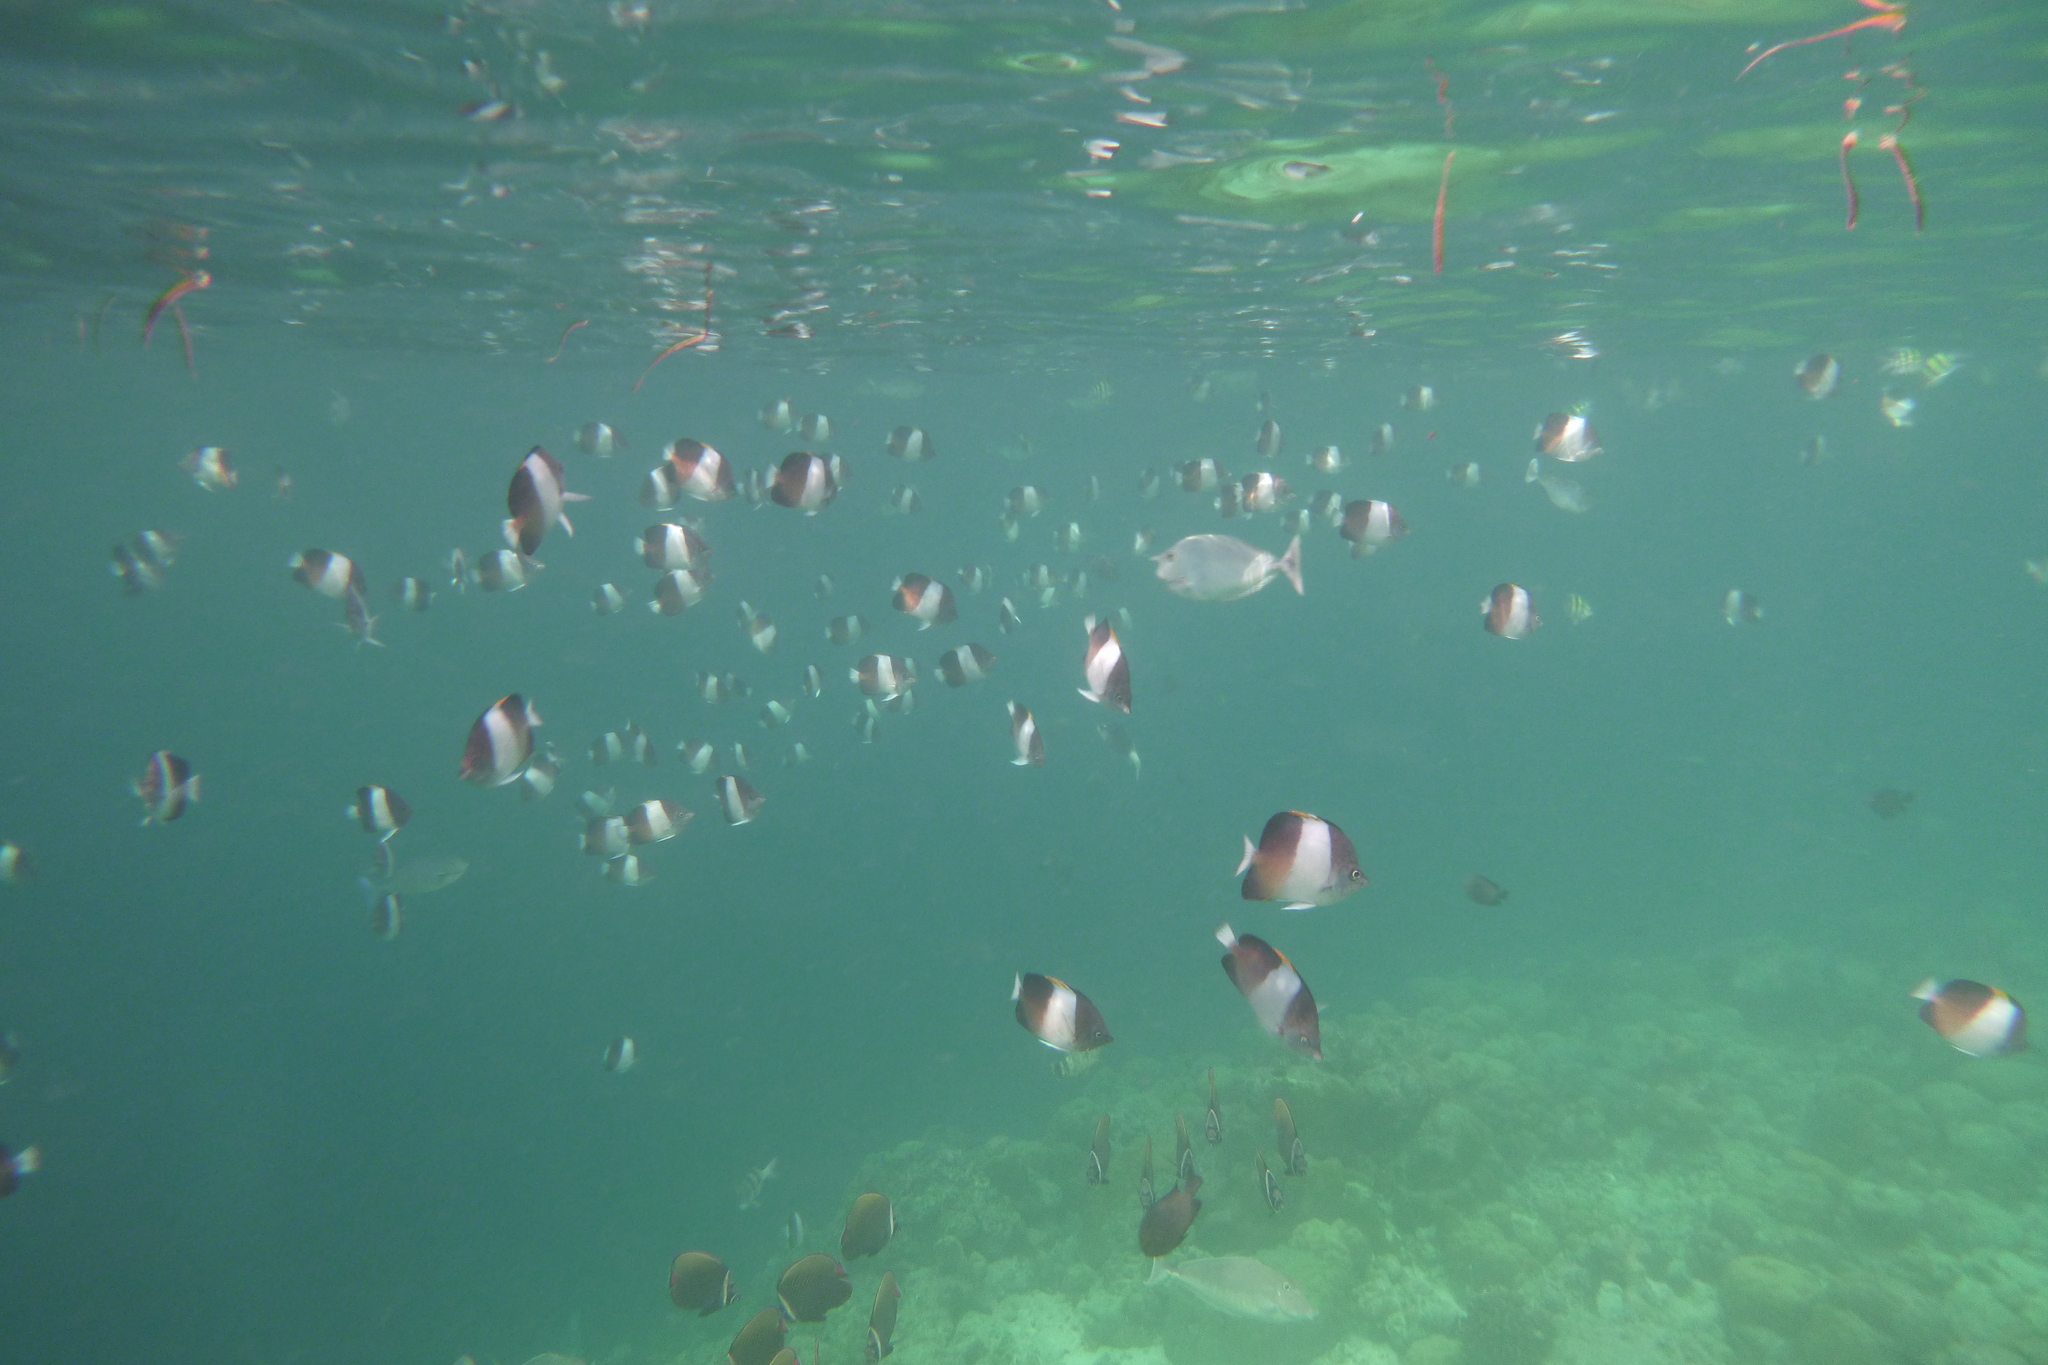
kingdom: Animalia
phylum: Chordata
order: Perciformes
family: Chaetodontidae
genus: Hemitaurichthys
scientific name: Hemitaurichthys zoster
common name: Brown-and-white butterflyfish
